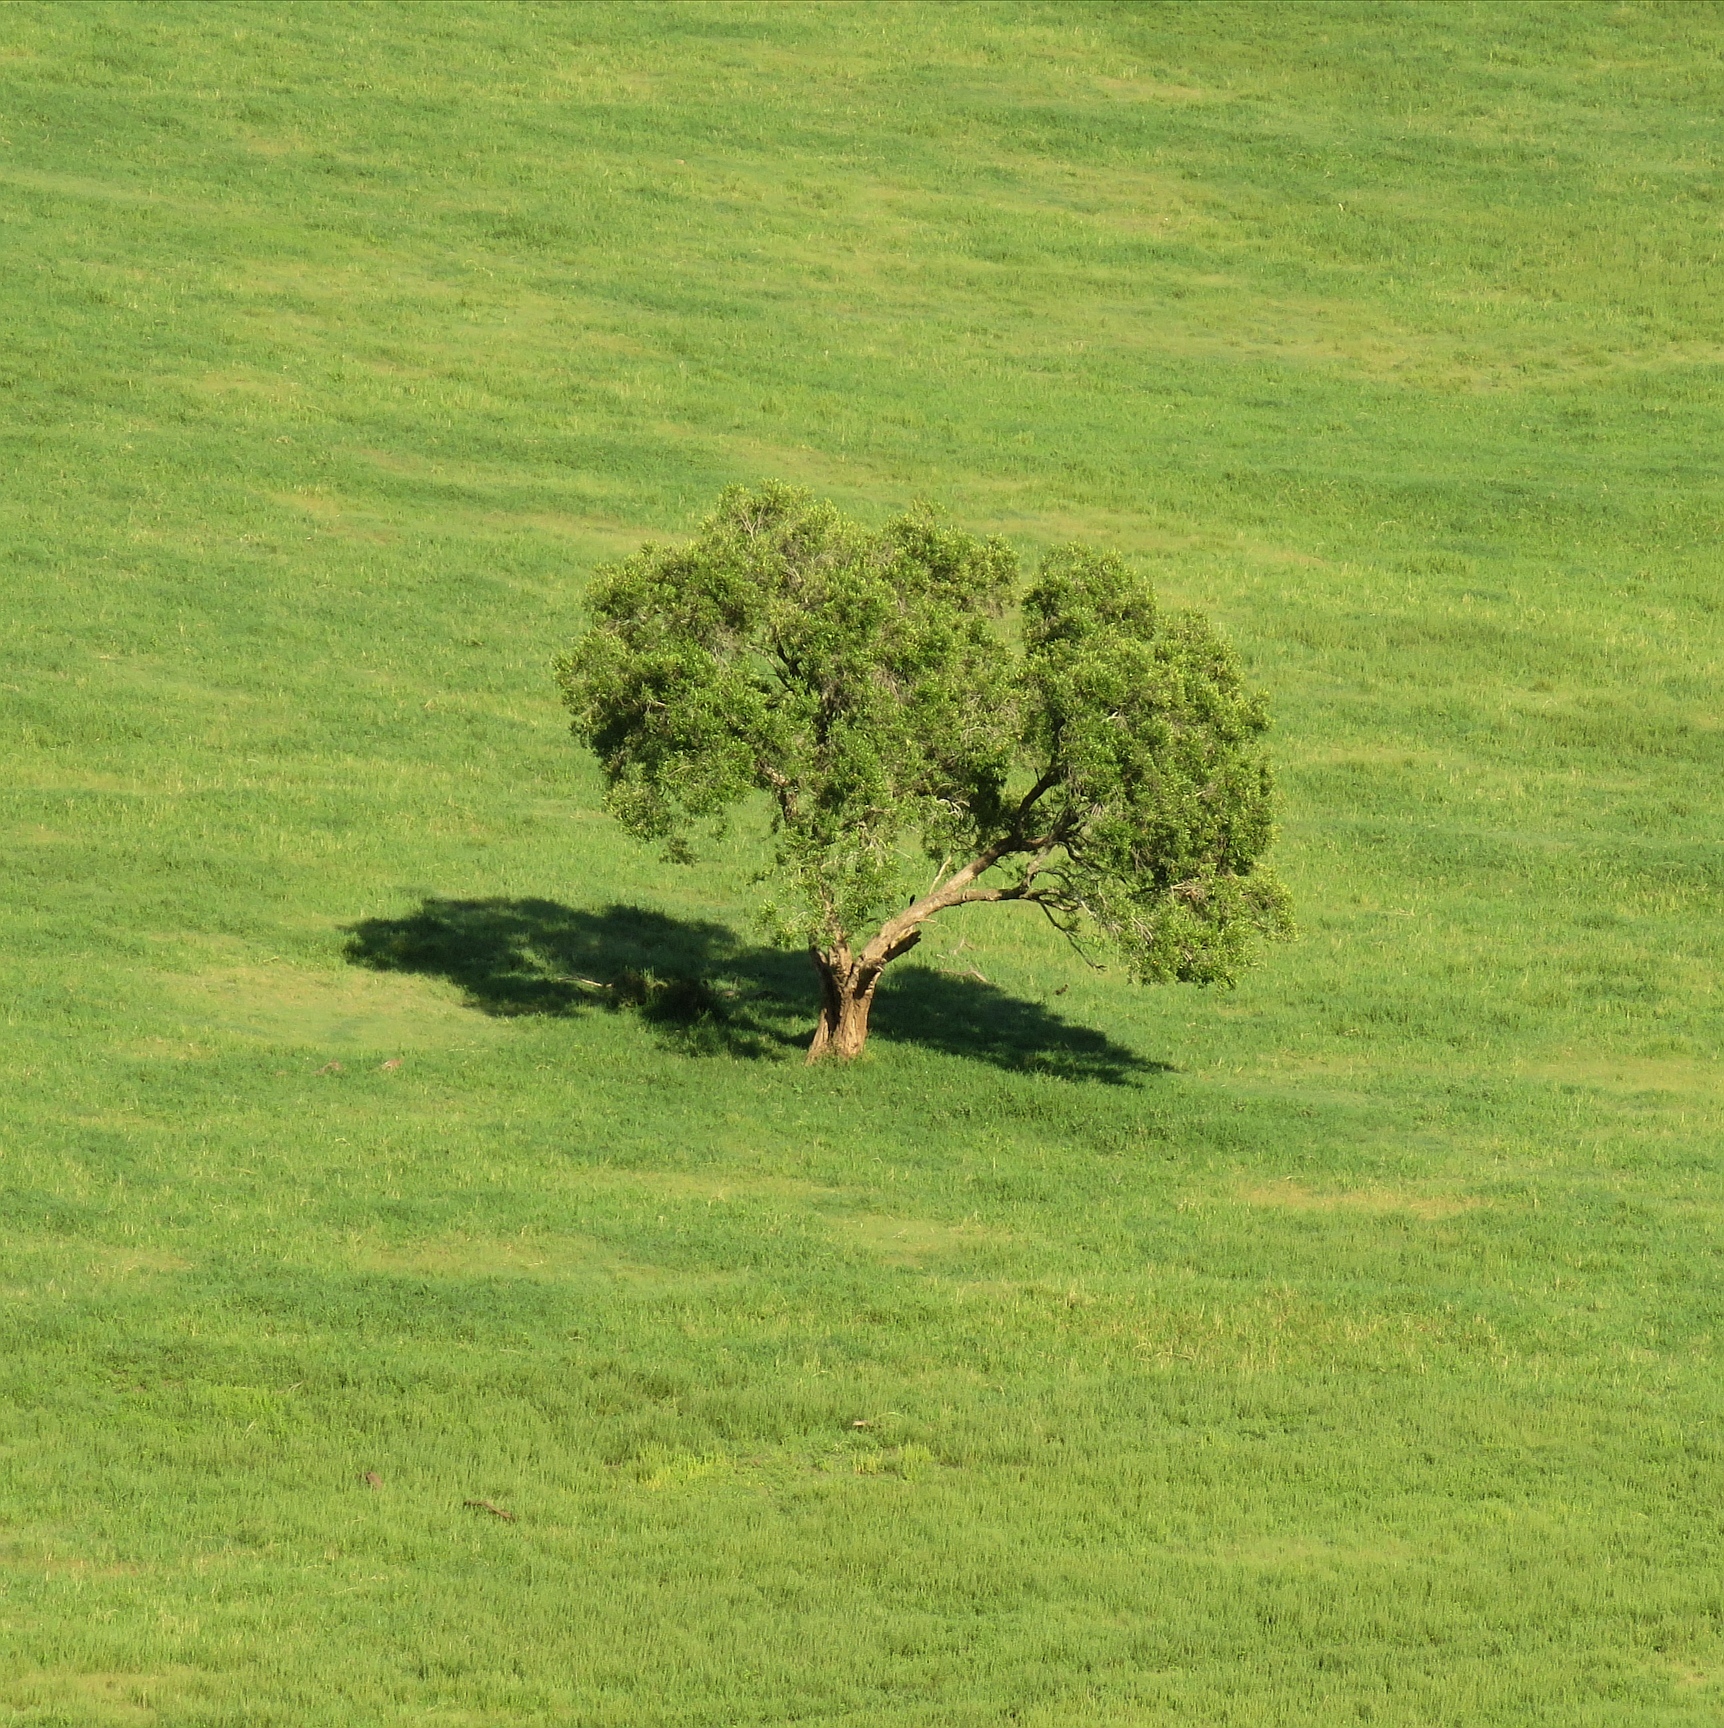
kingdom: Plantae
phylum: Tracheophyta
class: Magnoliopsida
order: Lamiales
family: Oleaceae
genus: Olea
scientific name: Olea europaea
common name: Olive
